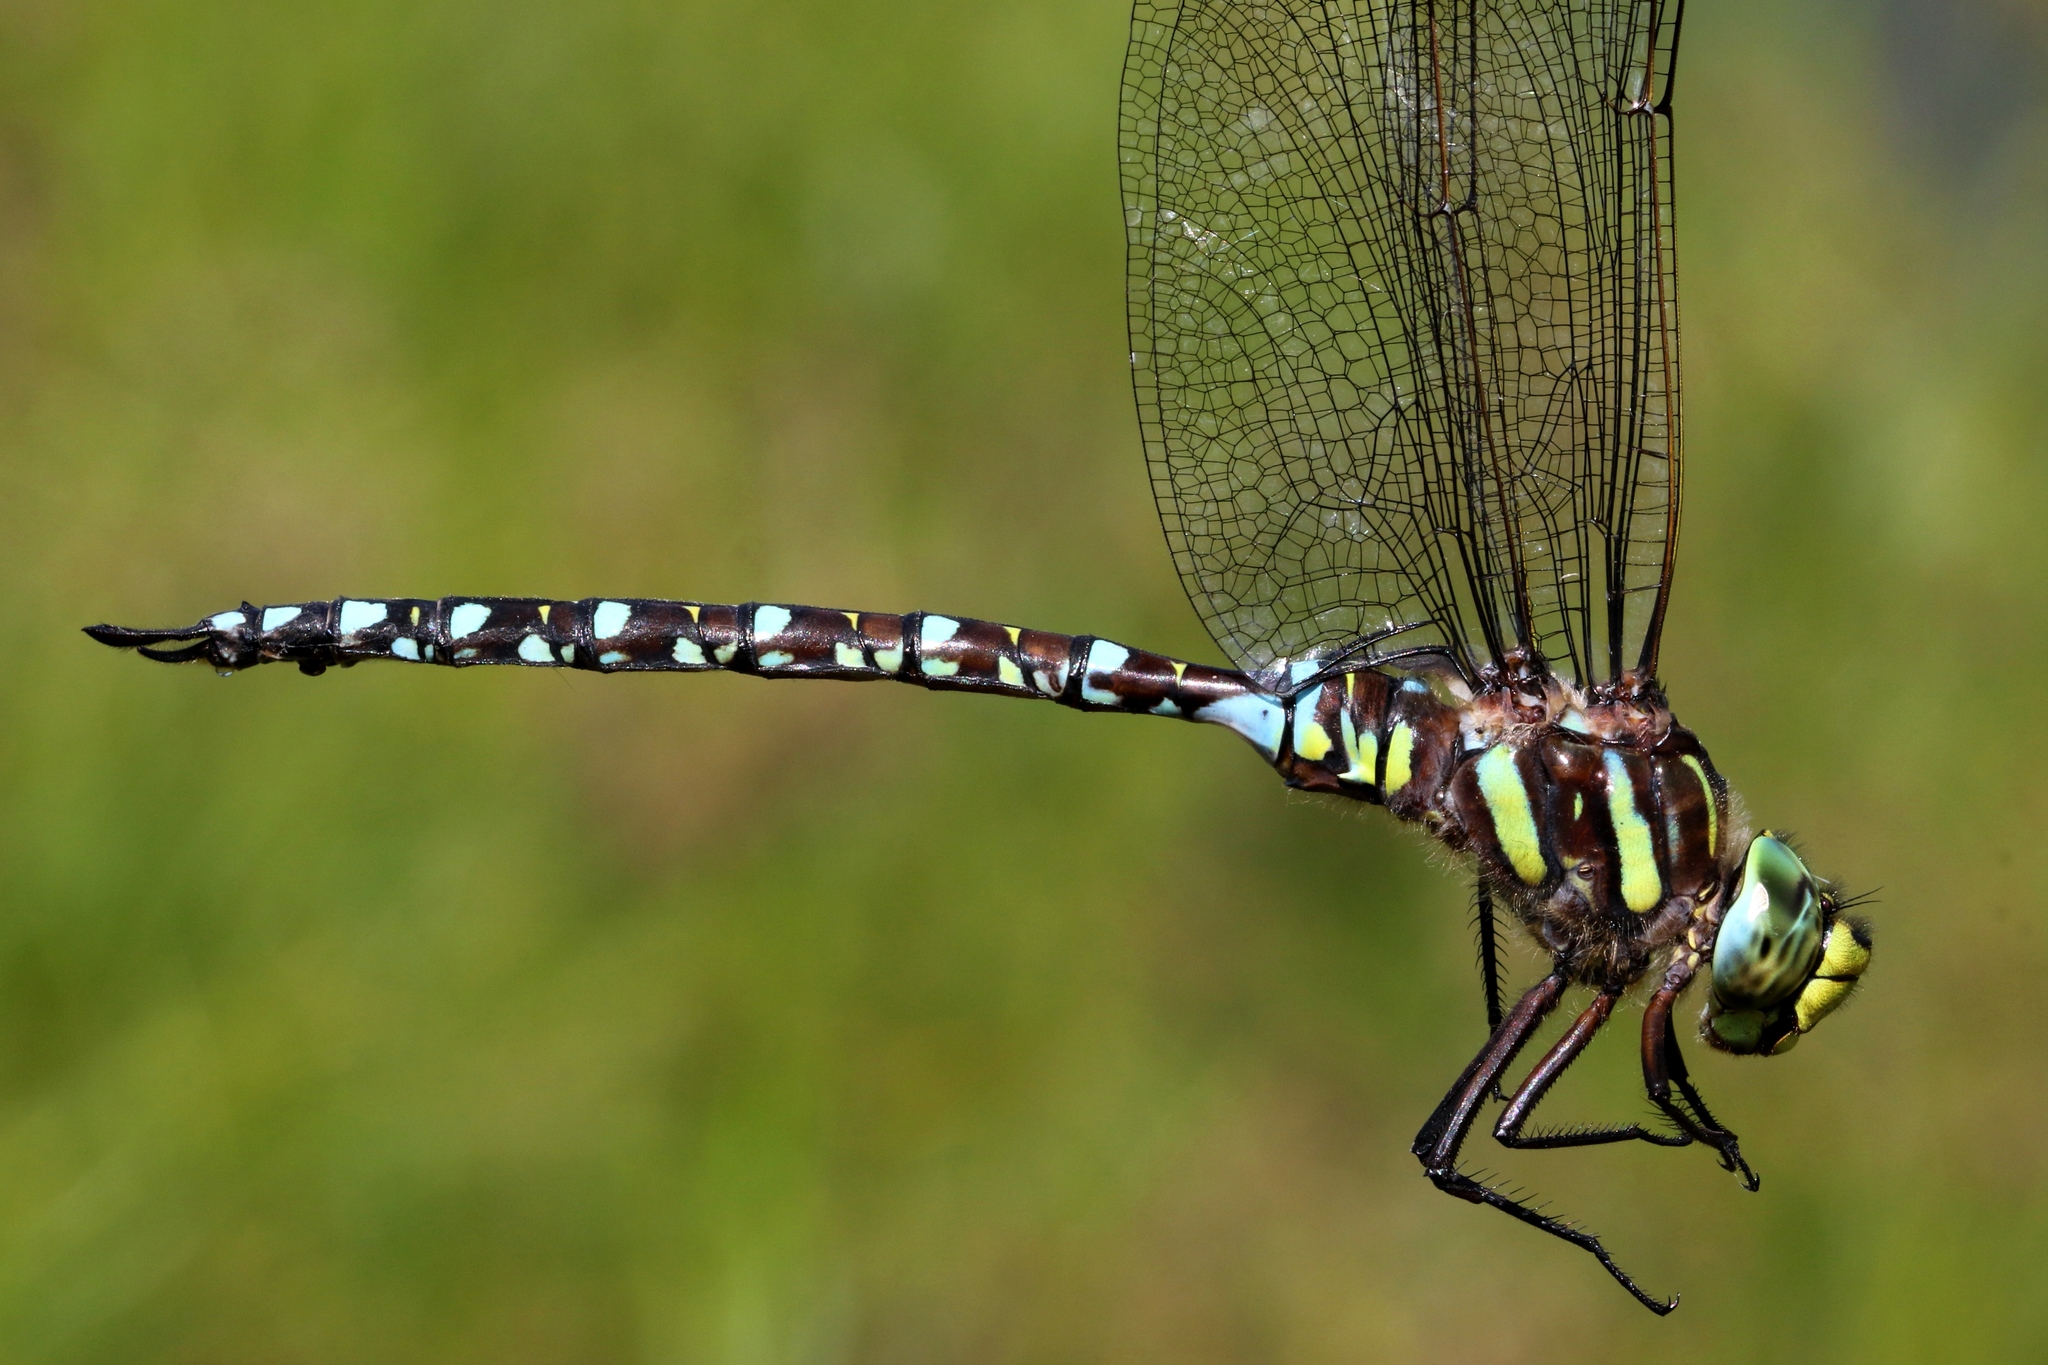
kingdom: Animalia
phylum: Arthropoda
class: Insecta
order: Odonata
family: Aeshnidae
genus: Aeshna
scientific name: Aeshna juncea
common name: Moorland hawker
